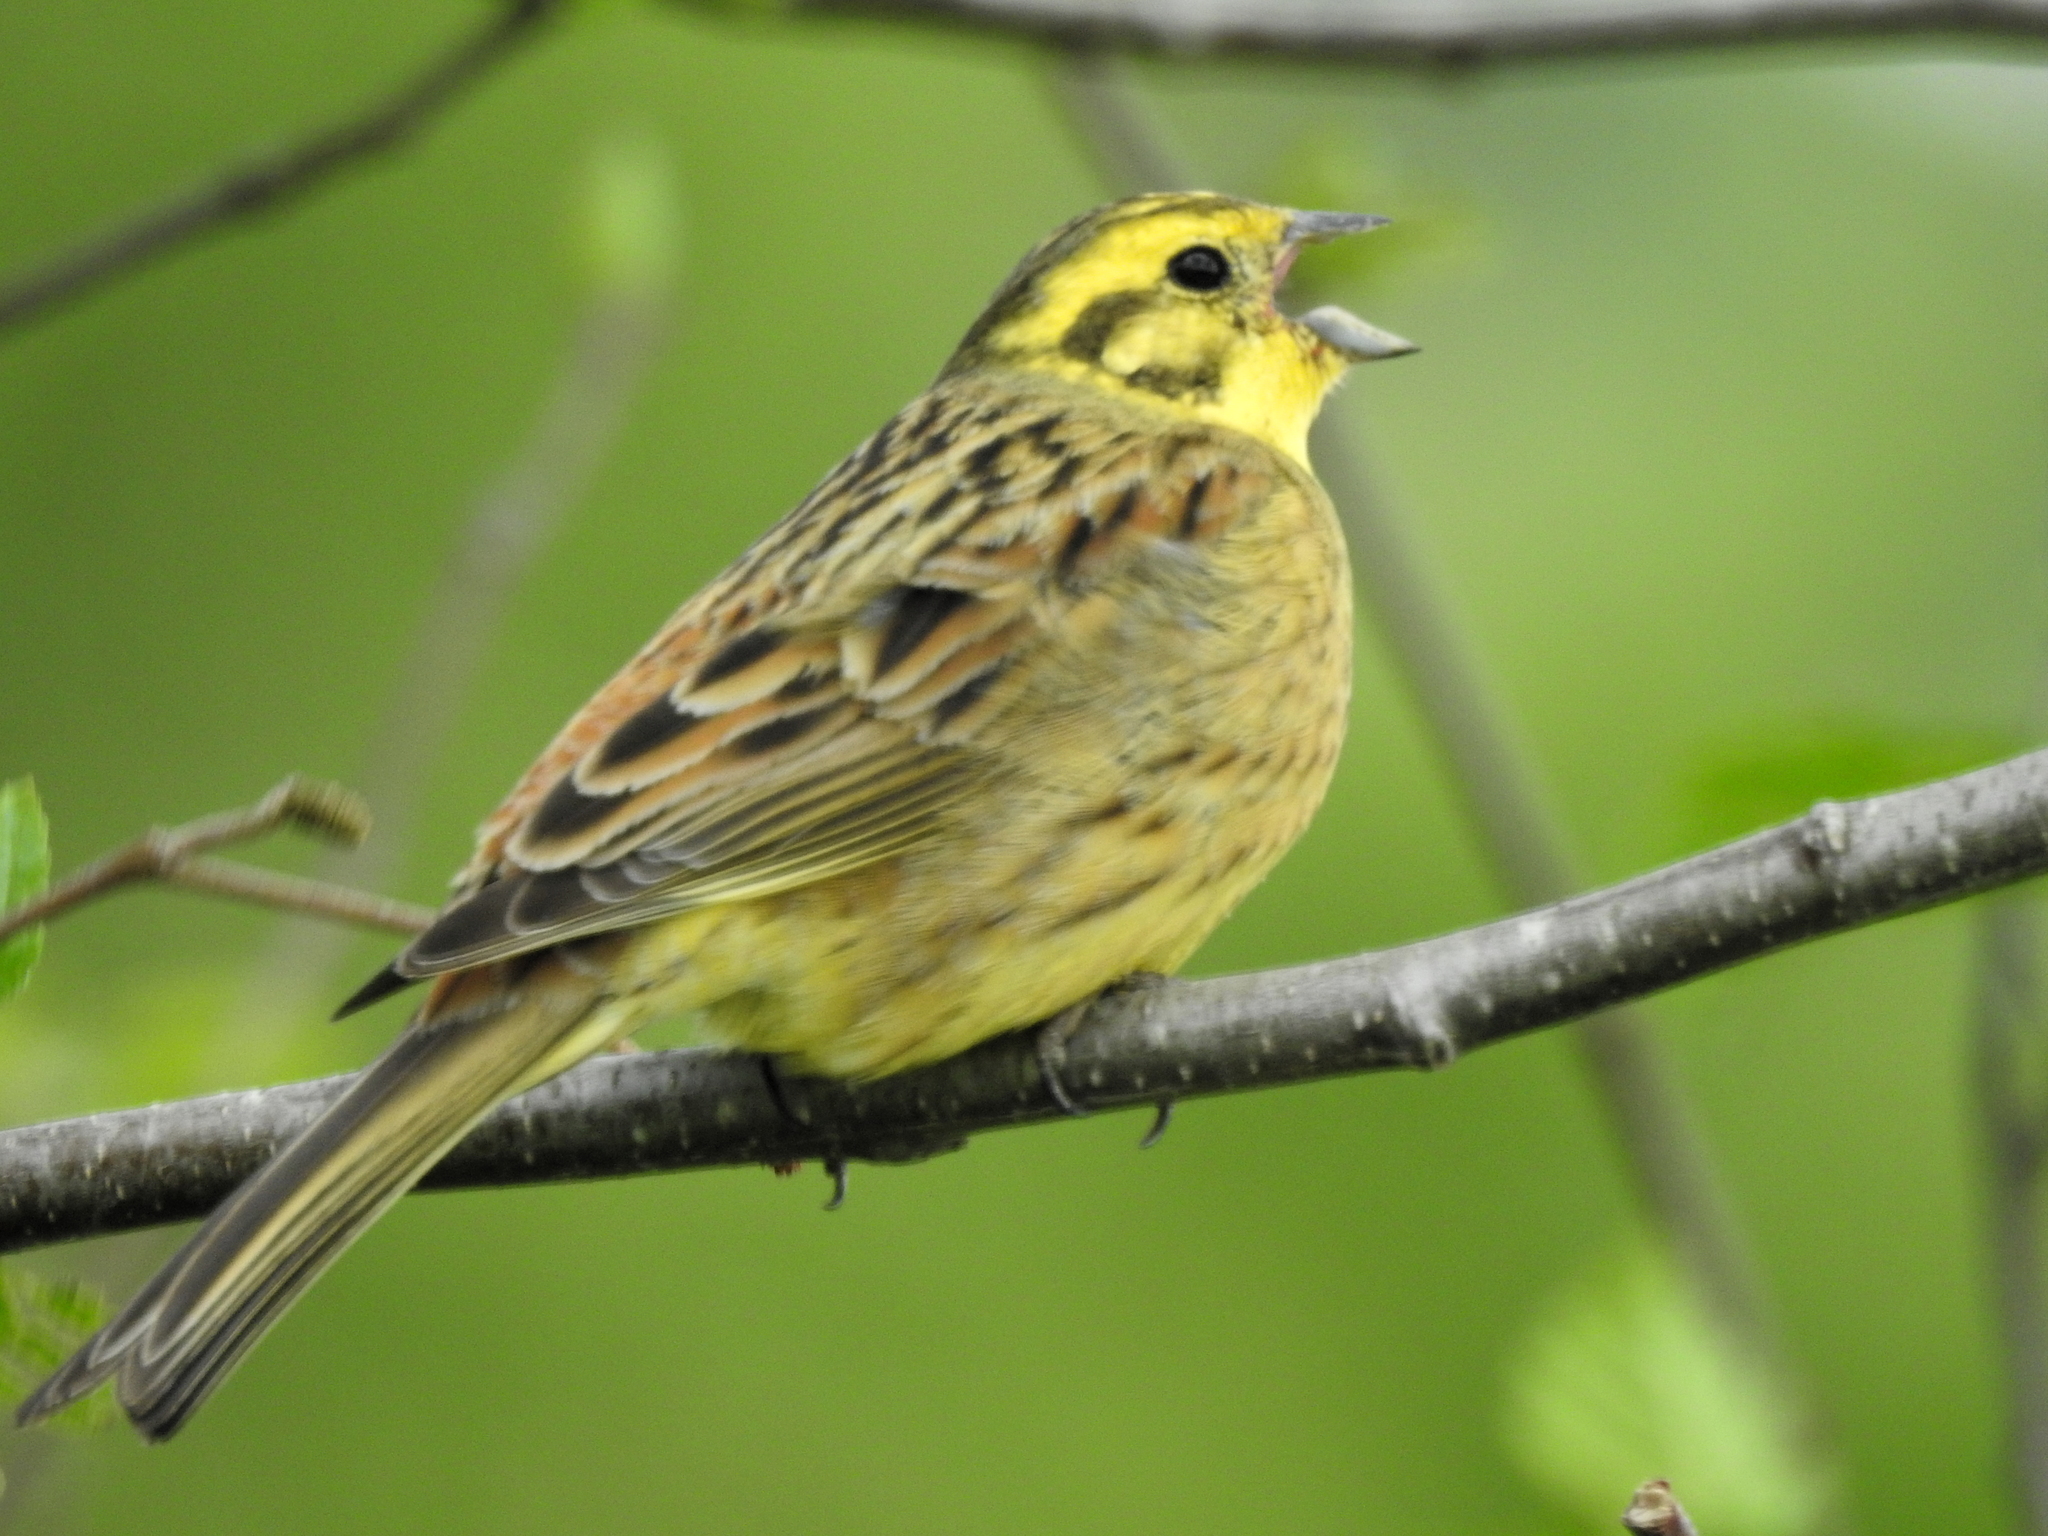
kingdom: Animalia
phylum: Chordata
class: Aves
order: Passeriformes
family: Emberizidae
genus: Emberiza
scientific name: Emberiza citrinella
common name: Yellowhammer
